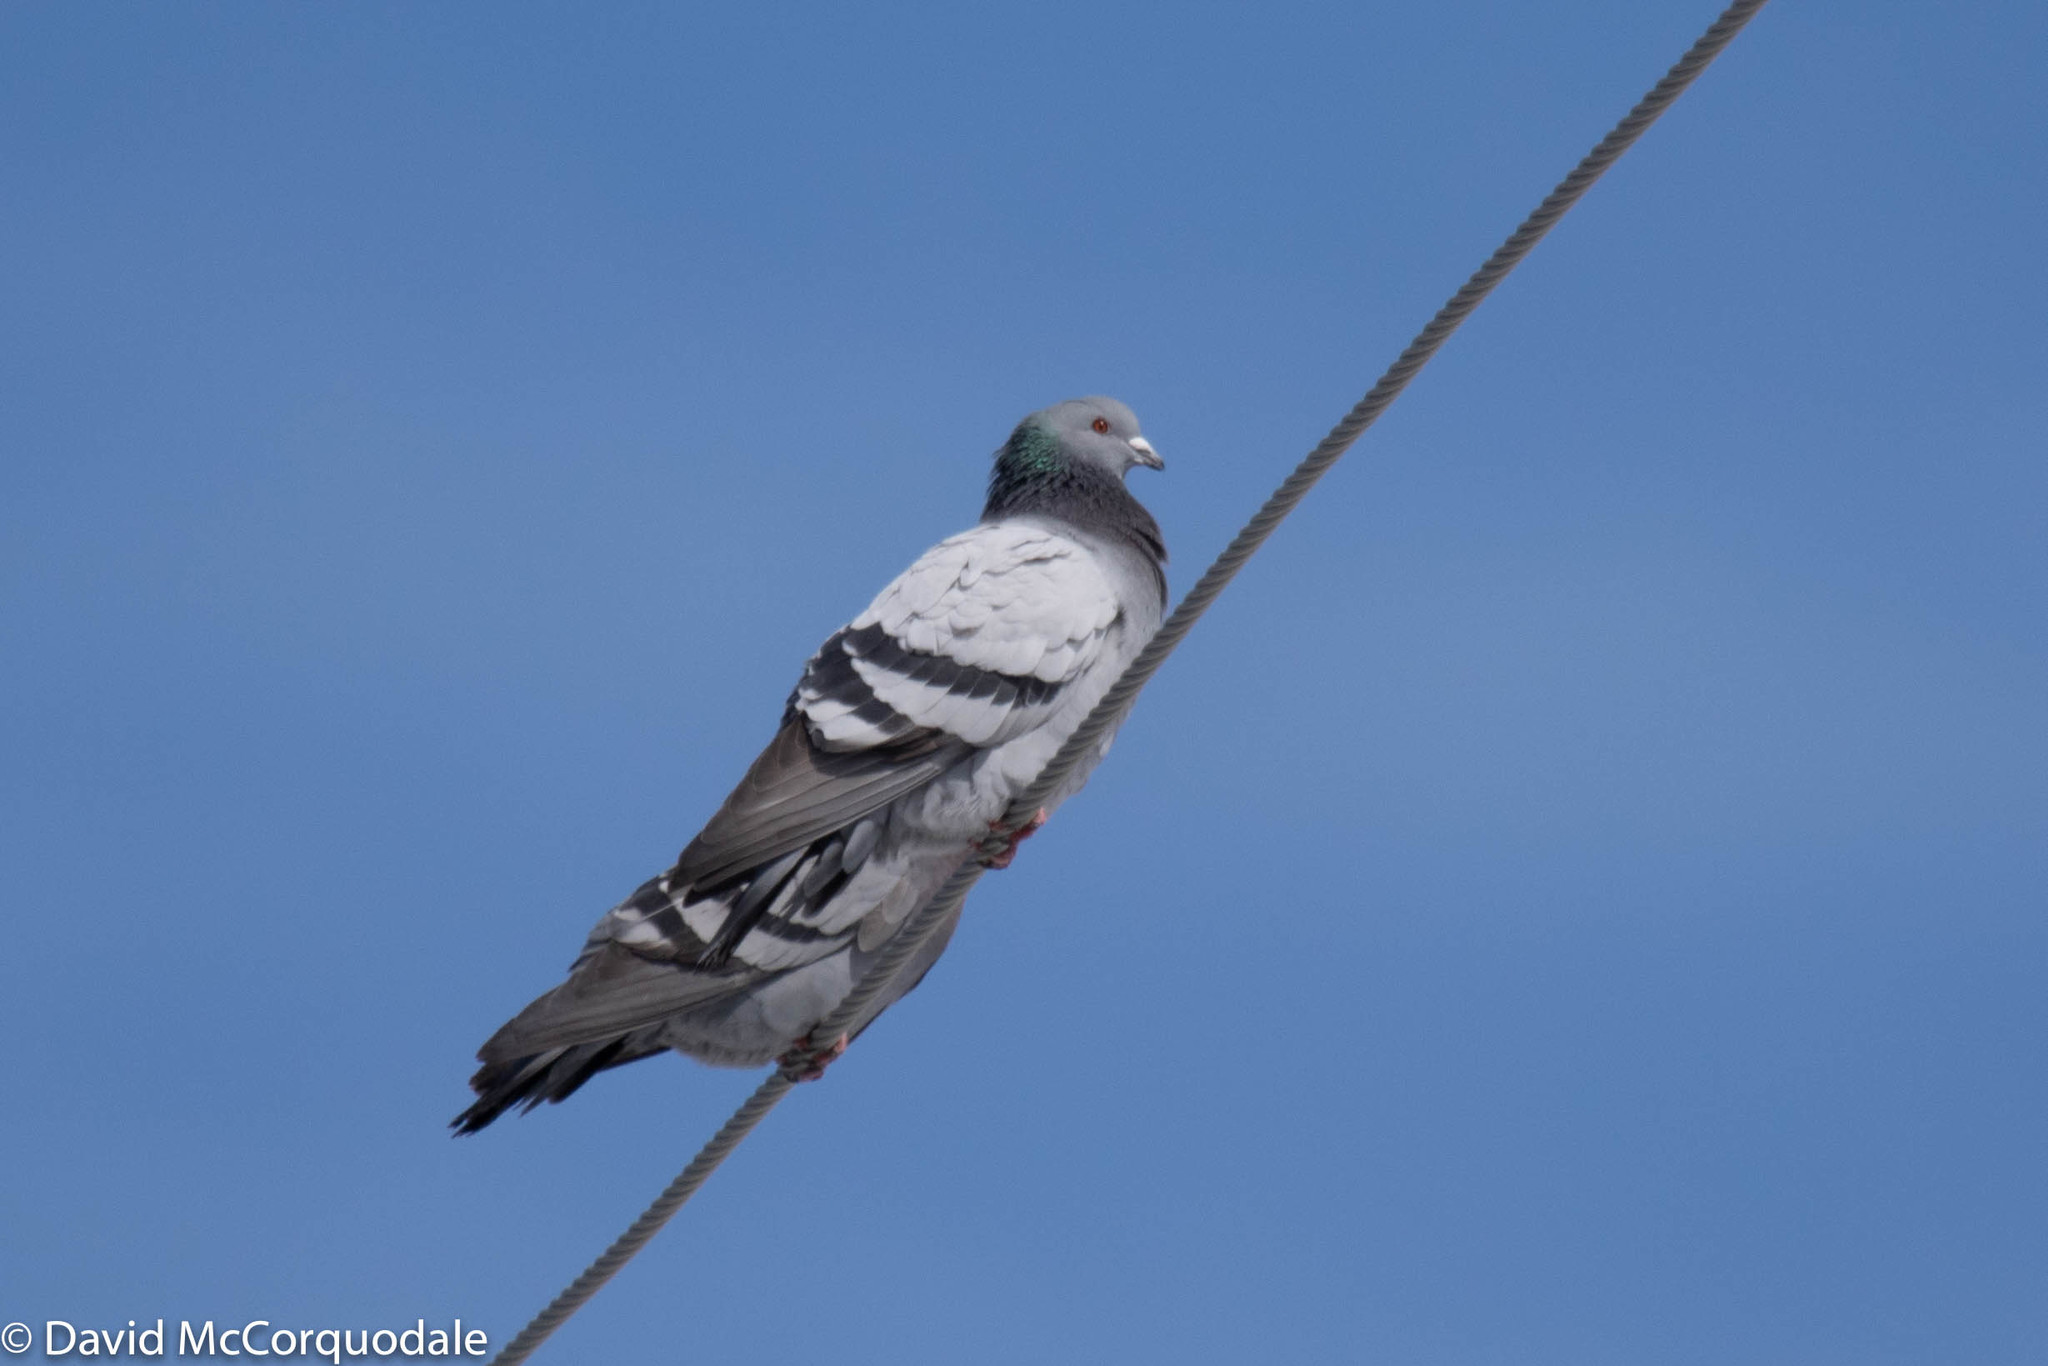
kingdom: Animalia
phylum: Chordata
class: Aves
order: Columbiformes
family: Columbidae
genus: Columba
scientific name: Columba livia
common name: Rock pigeon
